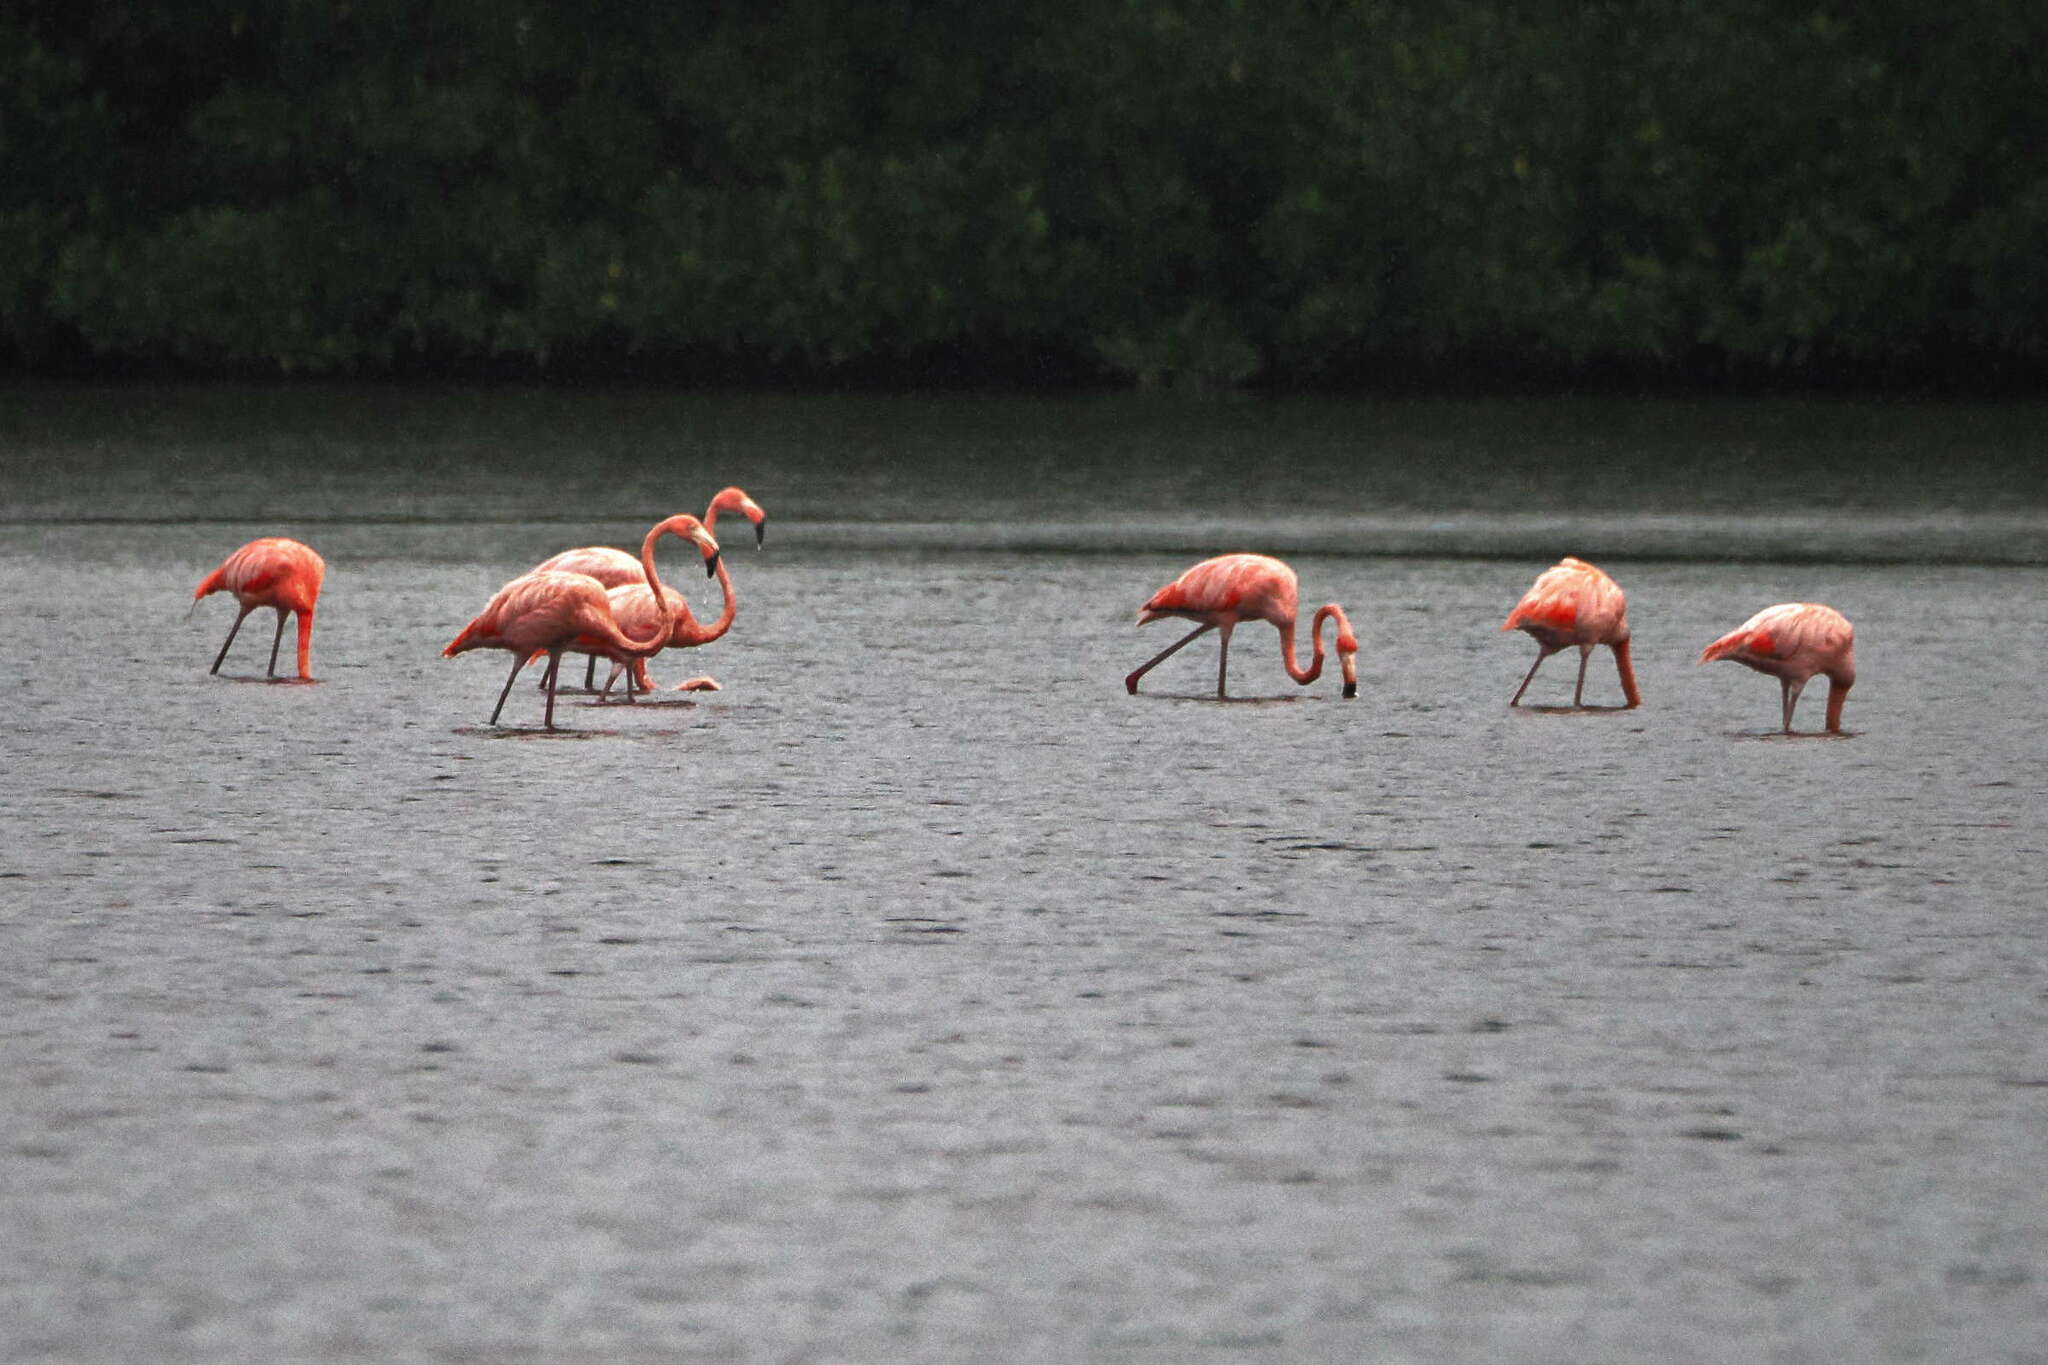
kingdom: Animalia
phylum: Chordata
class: Aves
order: Phoenicopteriformes
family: Phoenicopteridae
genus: Phoenicopterus
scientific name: Phoenicopterus ruber
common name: American flamingo
